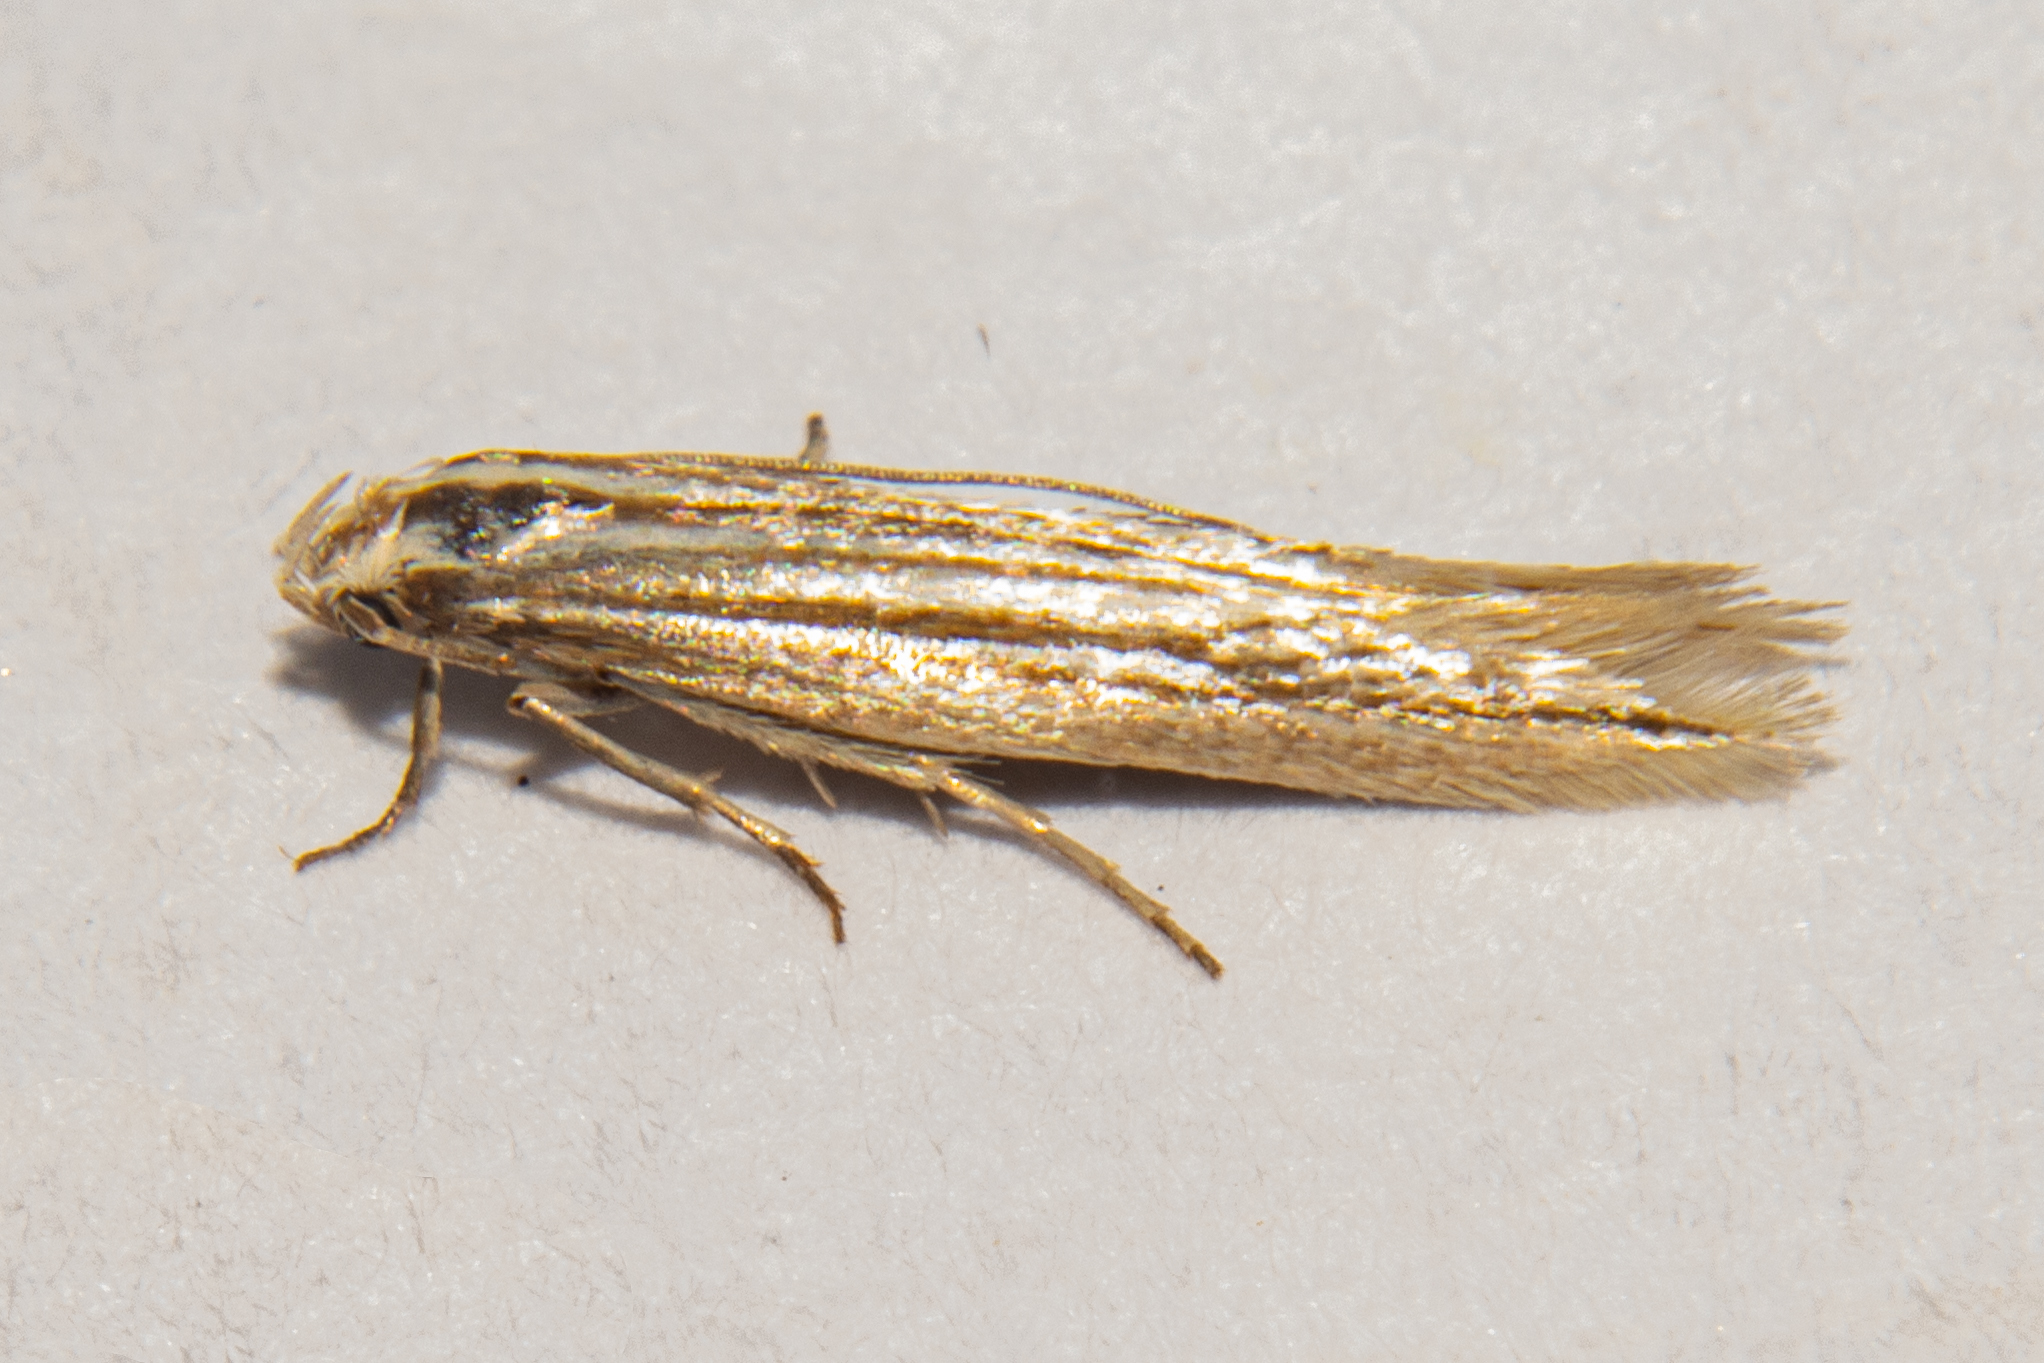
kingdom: Animalia
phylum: Arthropoda
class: Insecta
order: Lepidoptera
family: Elachistidae
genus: Elachista
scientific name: Elachista thallophora
